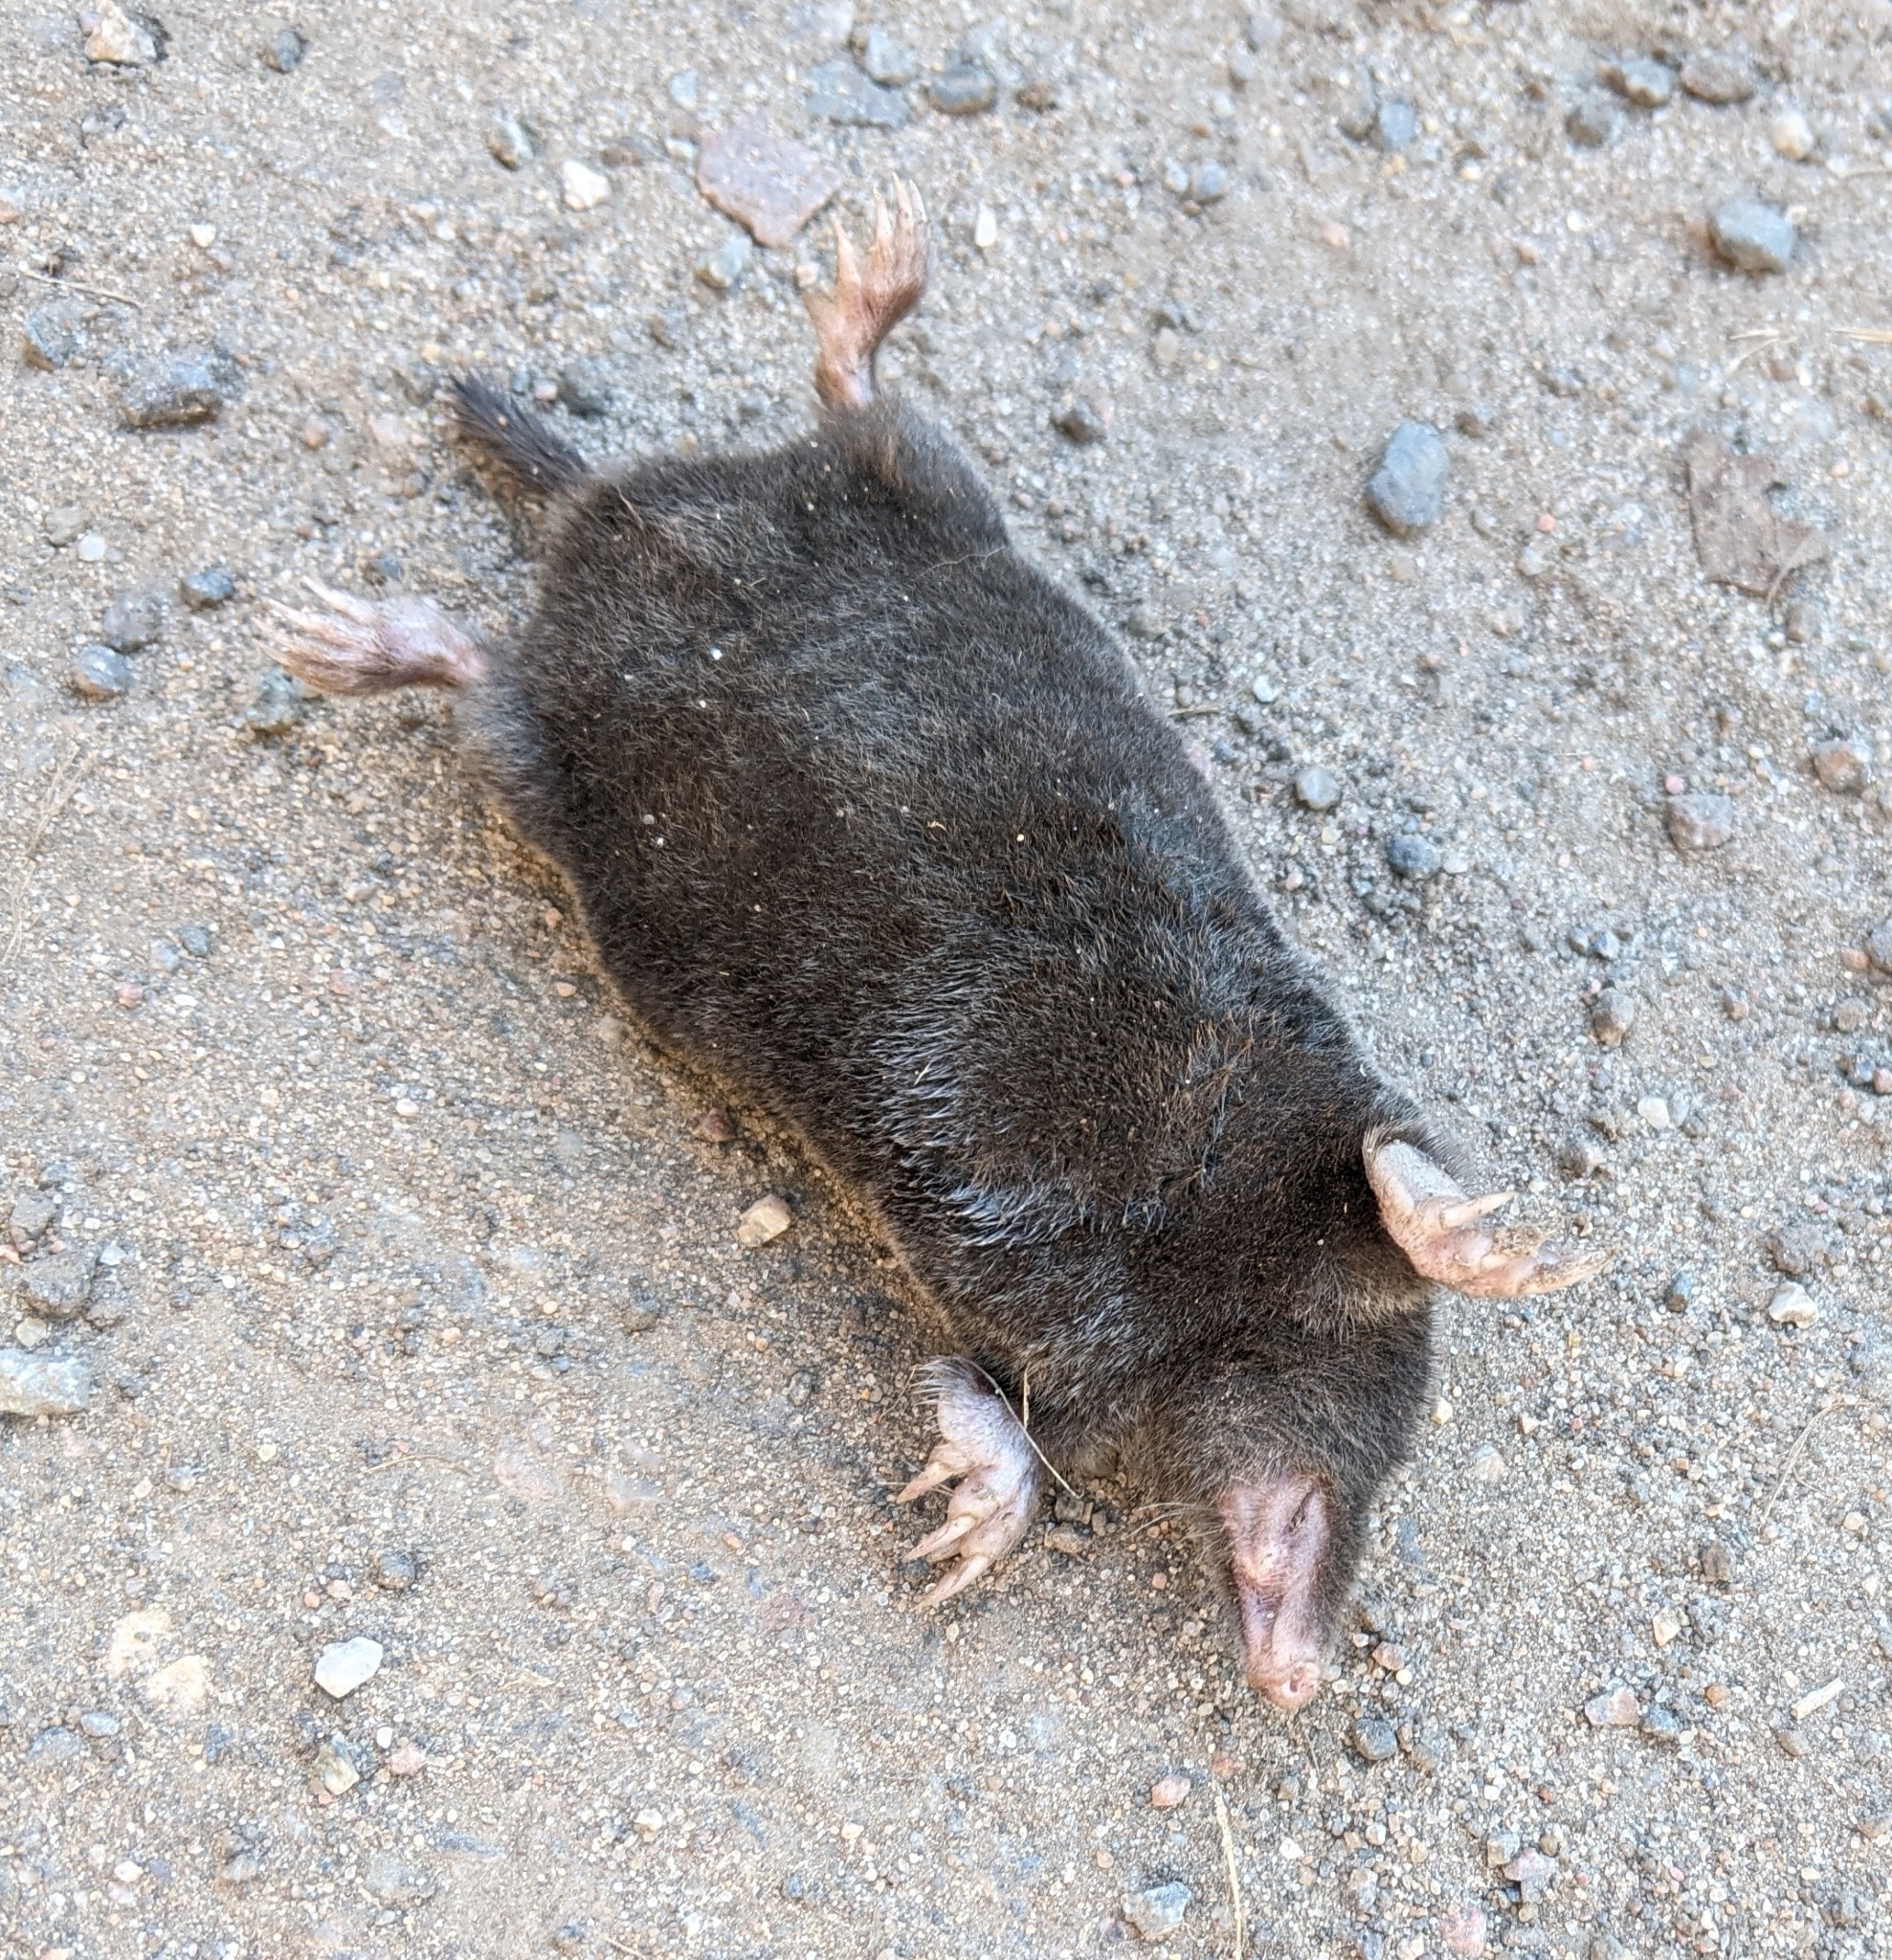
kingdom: Animalia
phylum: Chordata
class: Mammalia
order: Soricomorpha
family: Talpidae
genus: Talpa
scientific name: Talpa europaea
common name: European mole
